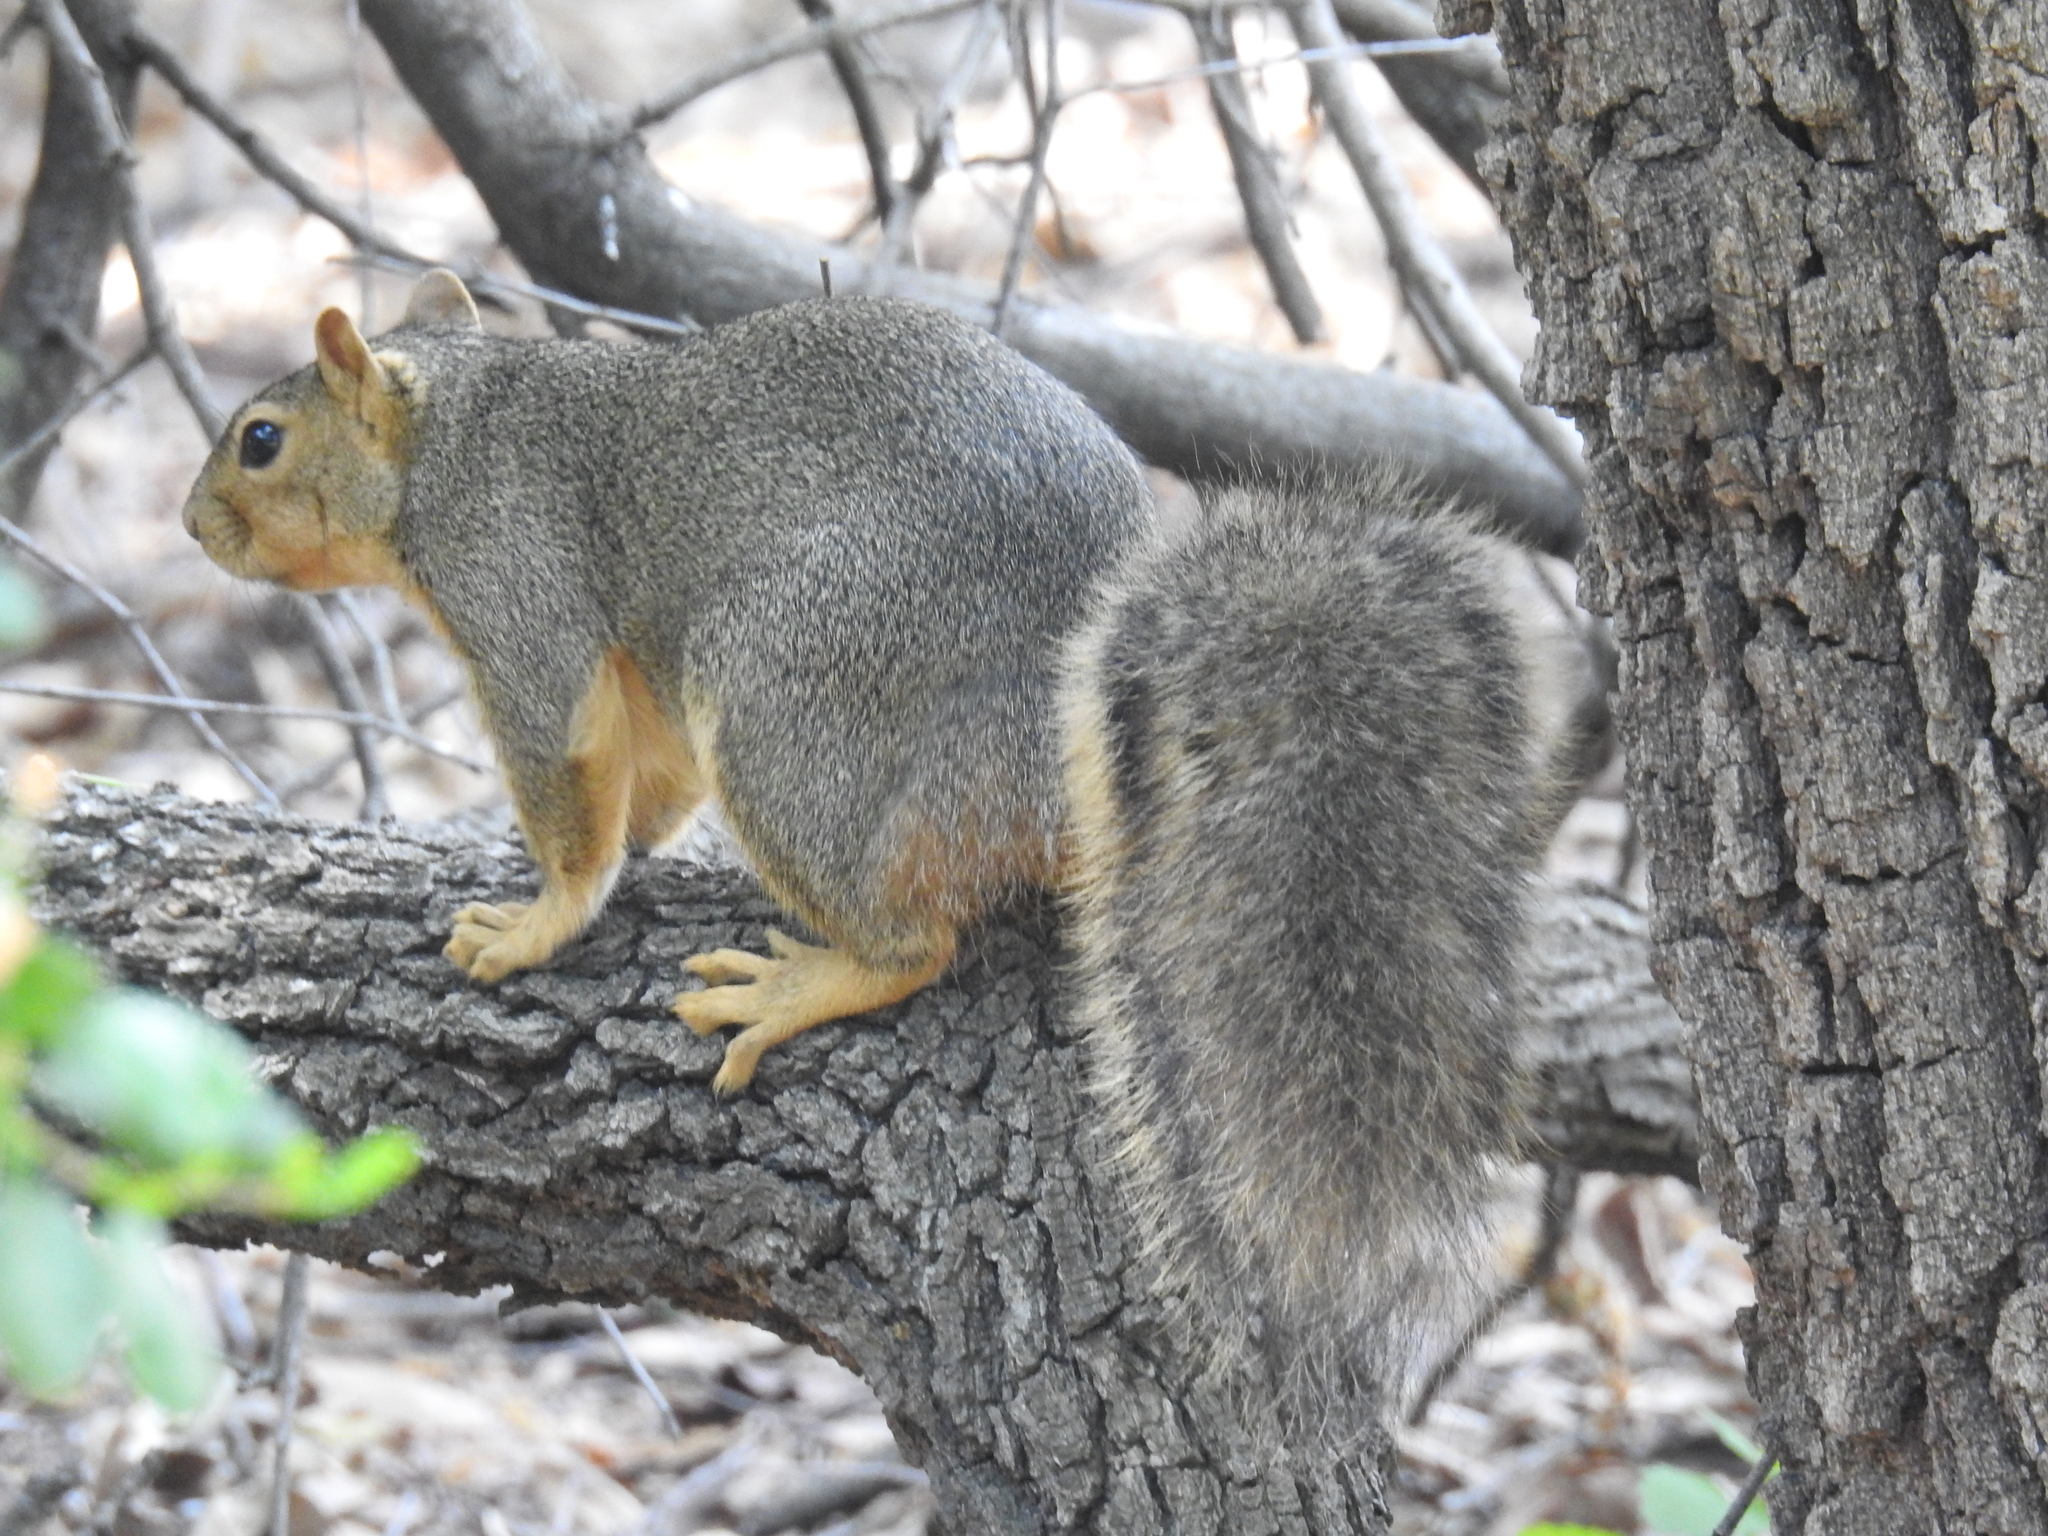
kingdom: Animalia
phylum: Chordata
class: Mammalia
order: Rodentia
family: Sciuridae
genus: Sciurus
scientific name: Sciurus niger
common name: Fox squirrel
